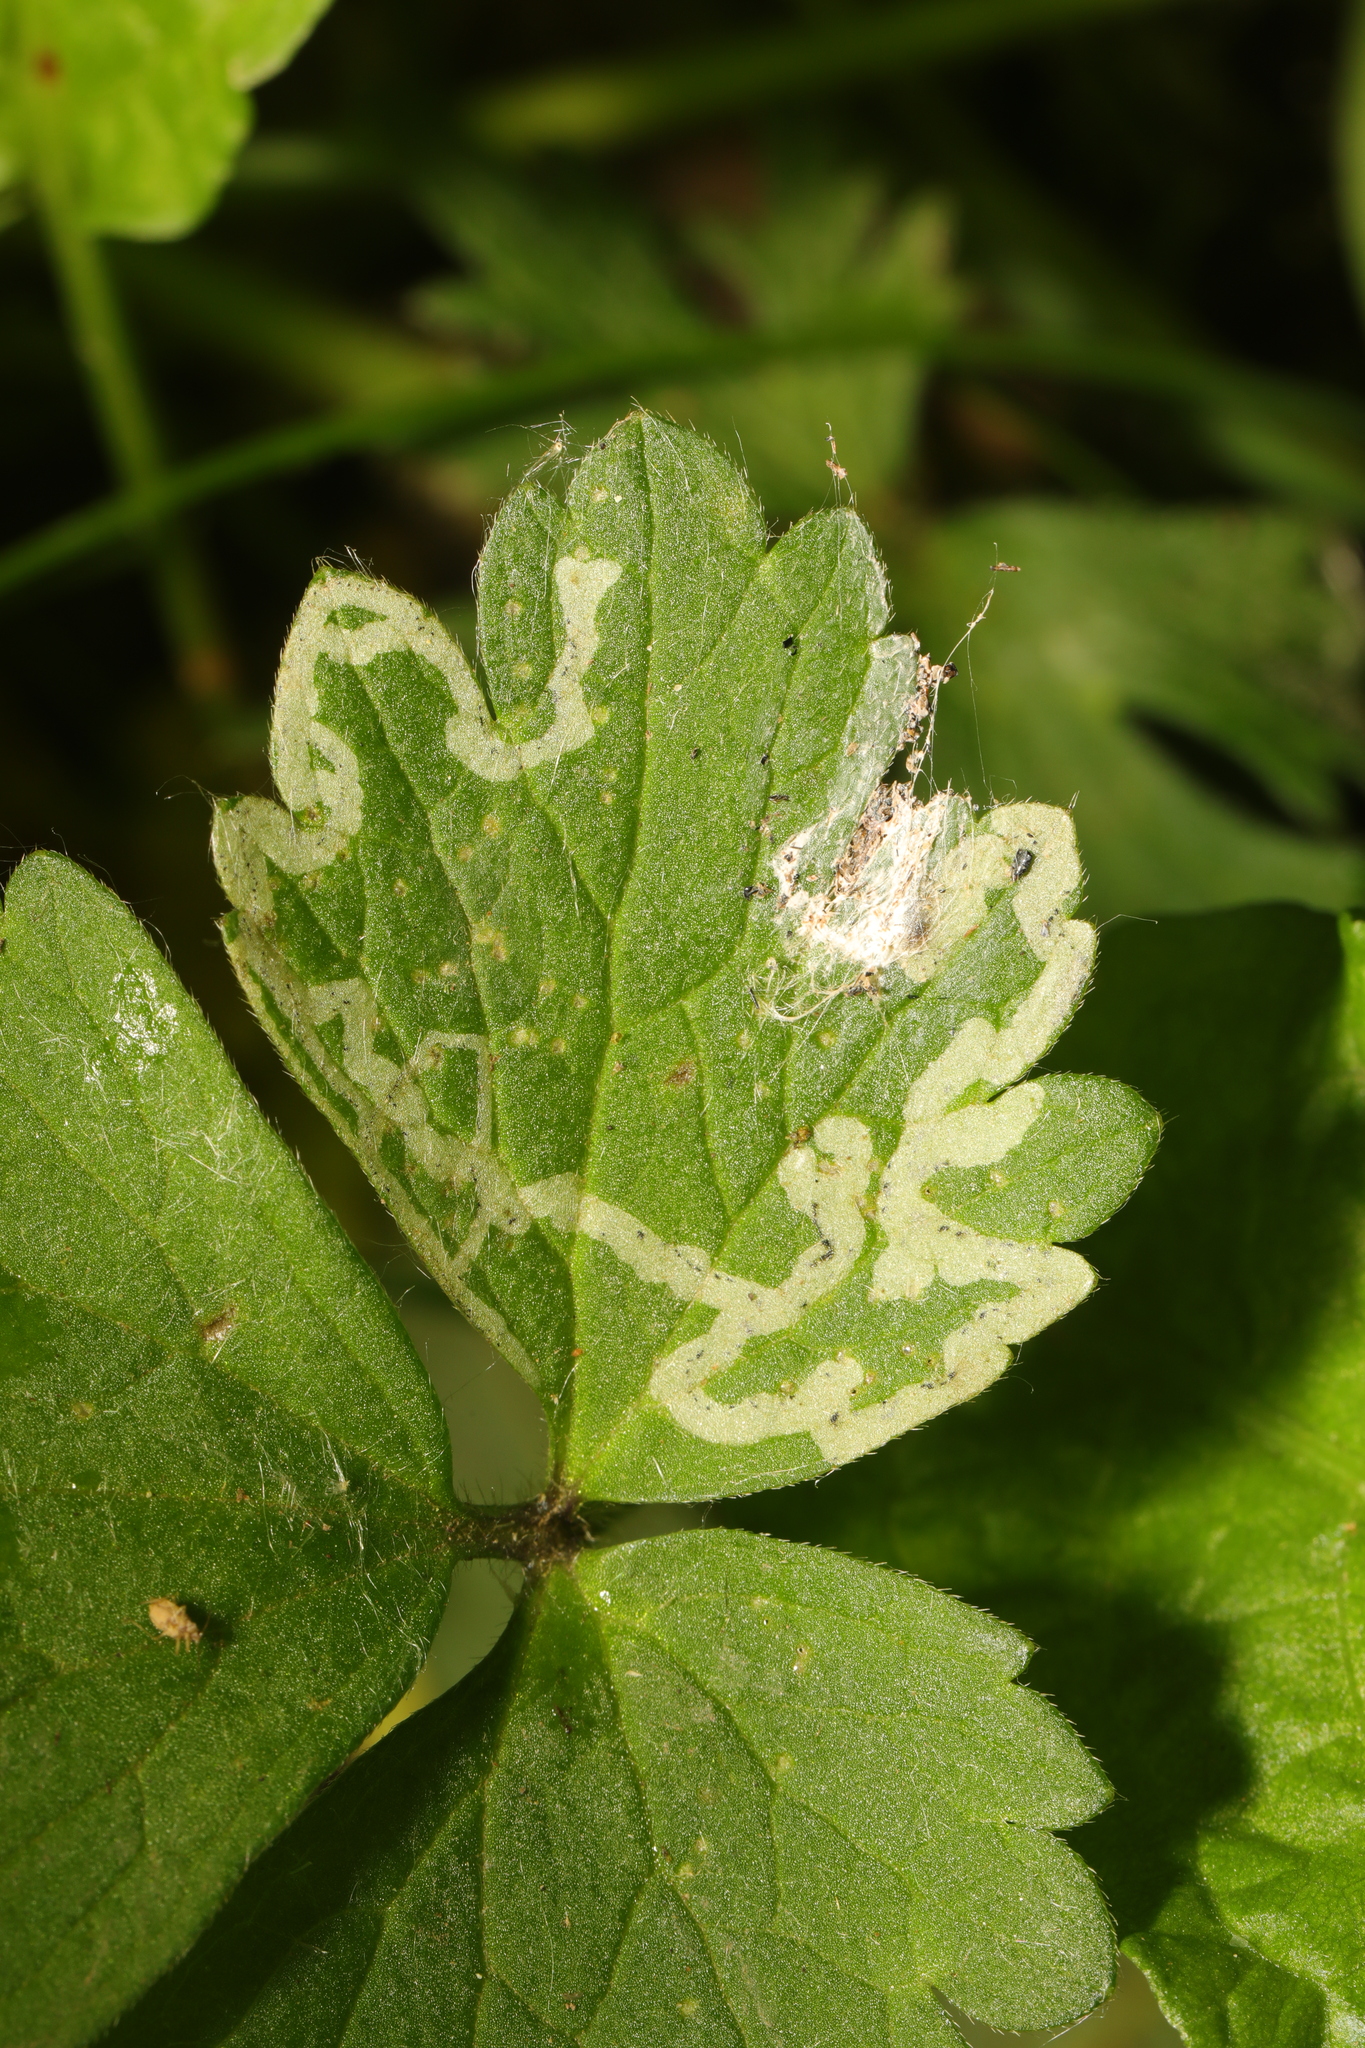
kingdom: Animalia
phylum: Arthropoda
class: Insecta
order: Diptera
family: Agromyzidae
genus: Phytomyza
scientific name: Phytomyza ranunculi
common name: Leaf-miner fly
